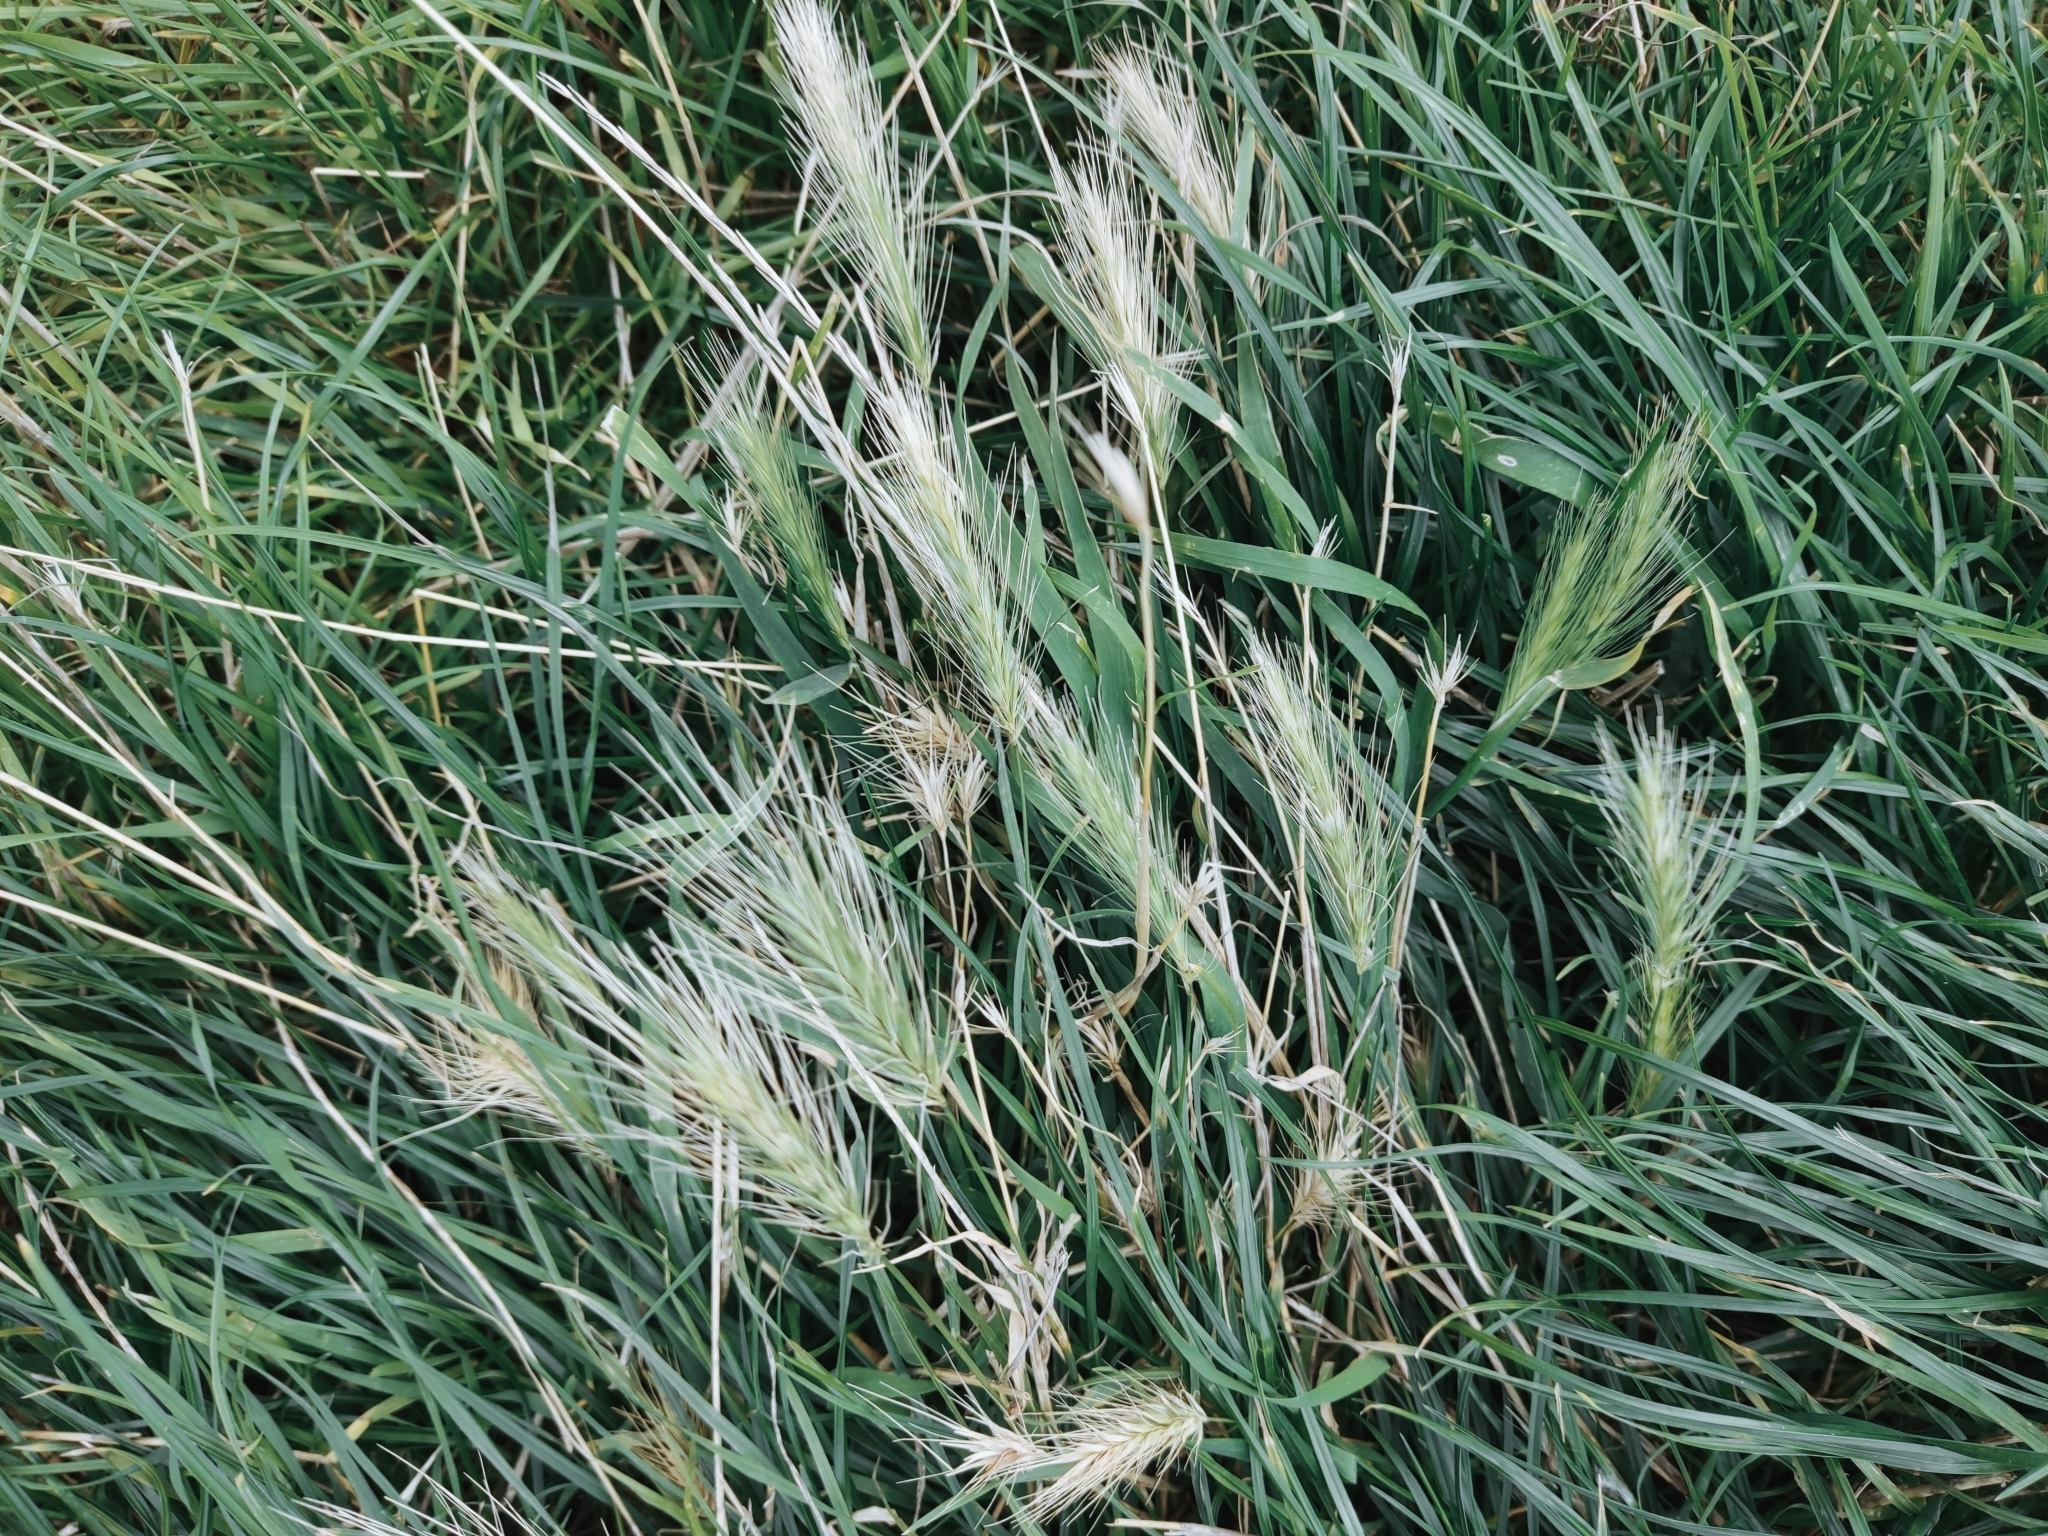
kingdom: Plantae
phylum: Tracheophyta
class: Liliopsida
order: Poales
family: Poaceae
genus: Hordeum
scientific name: Hordeum murinum
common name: Wall barley
